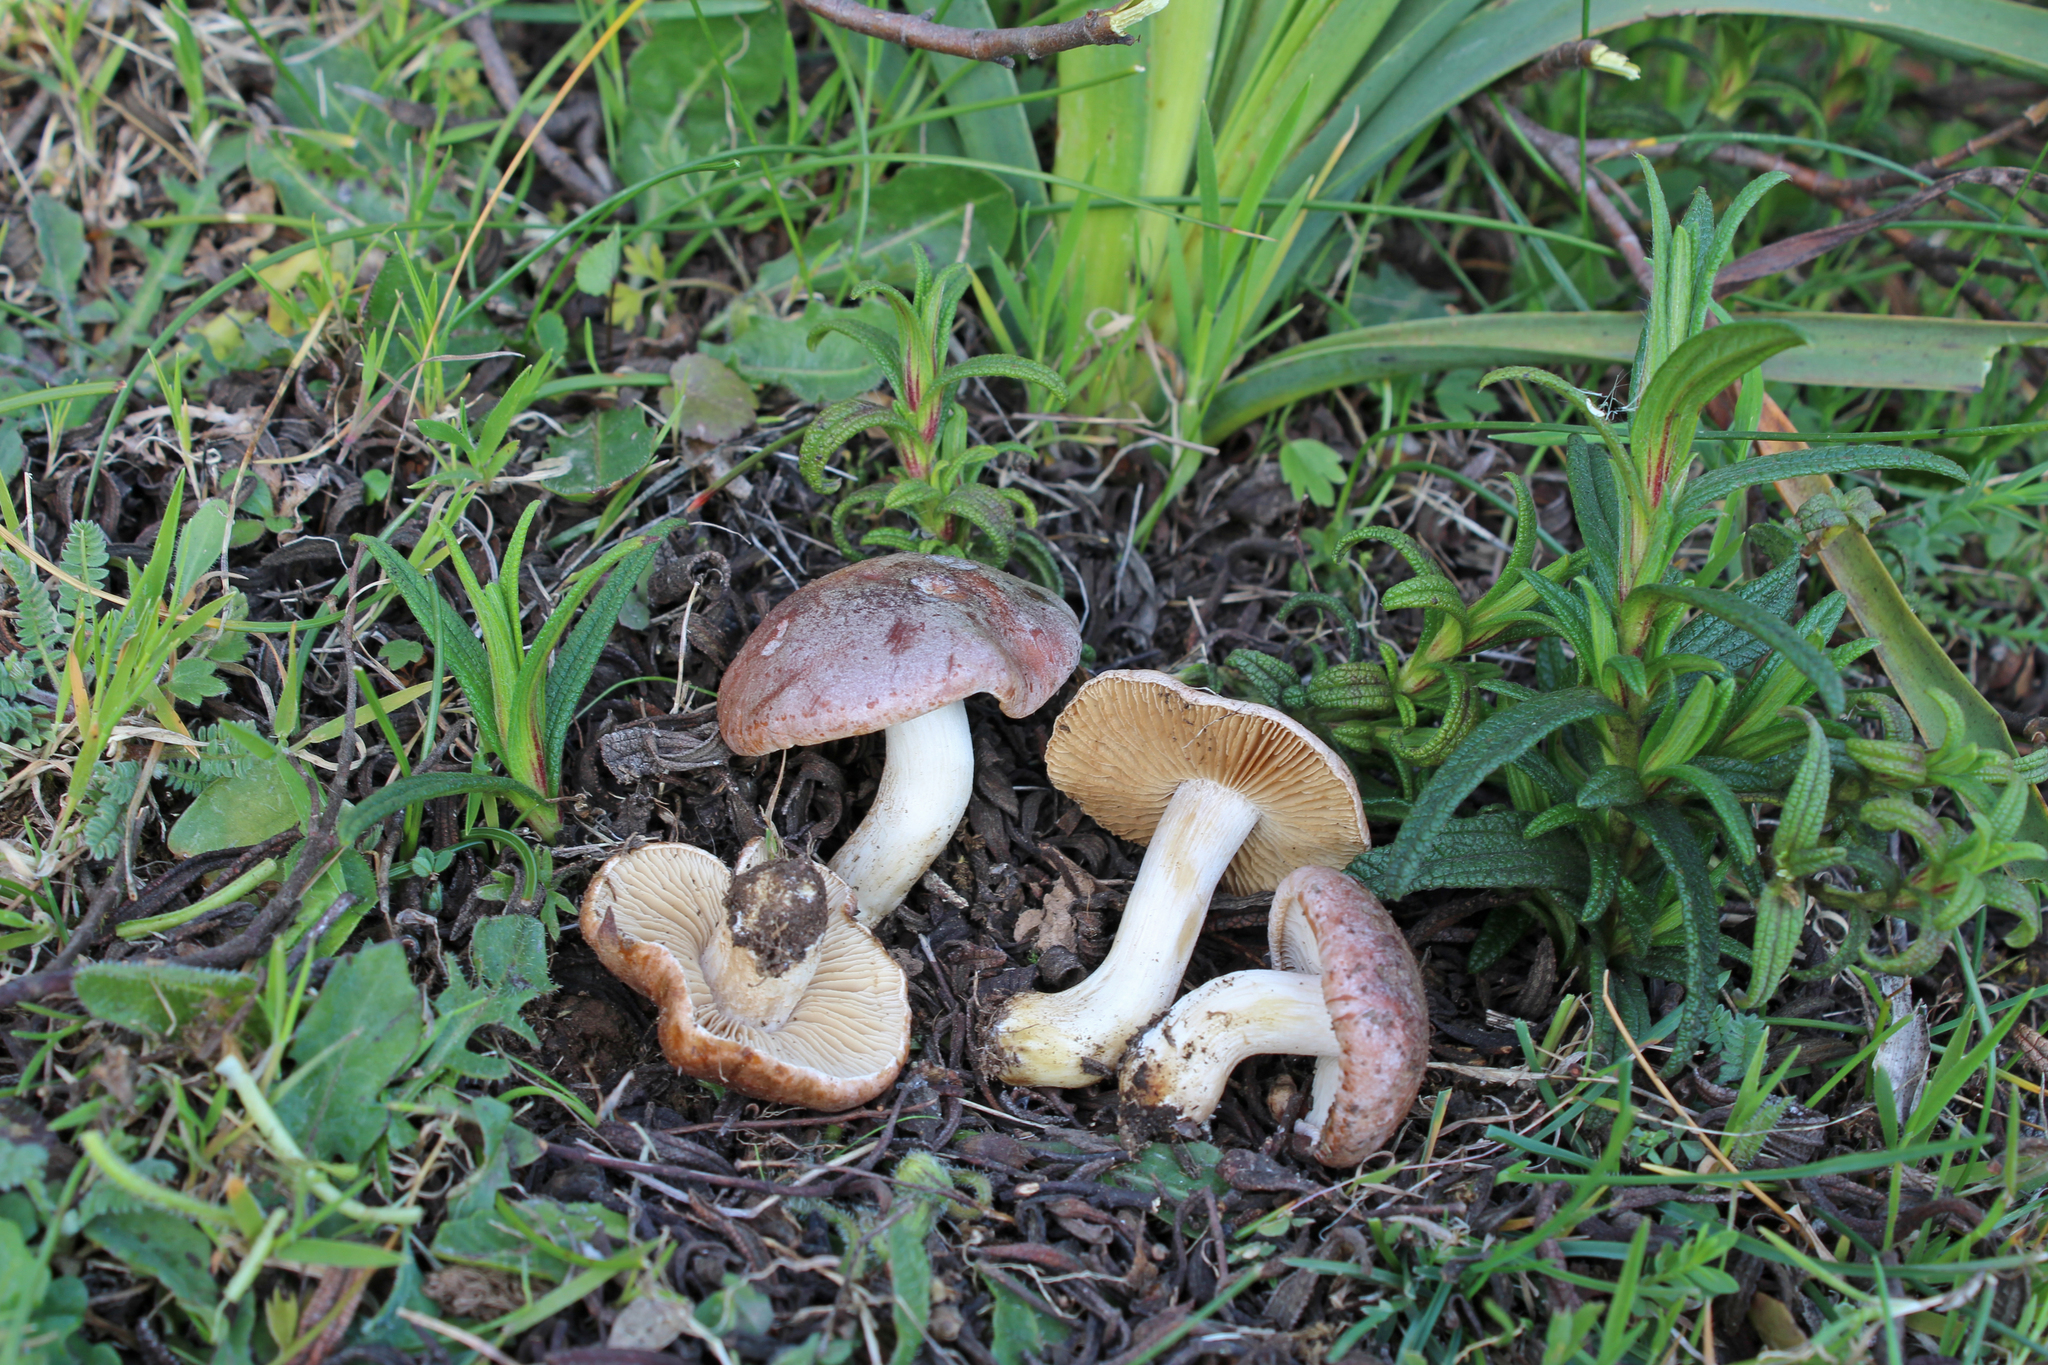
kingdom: Fungi
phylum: Basidiomycota
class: Agaricomycetes
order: Agaricales
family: Hymenogastraceae
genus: Hebeloma
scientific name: Hebeloma erumpens
